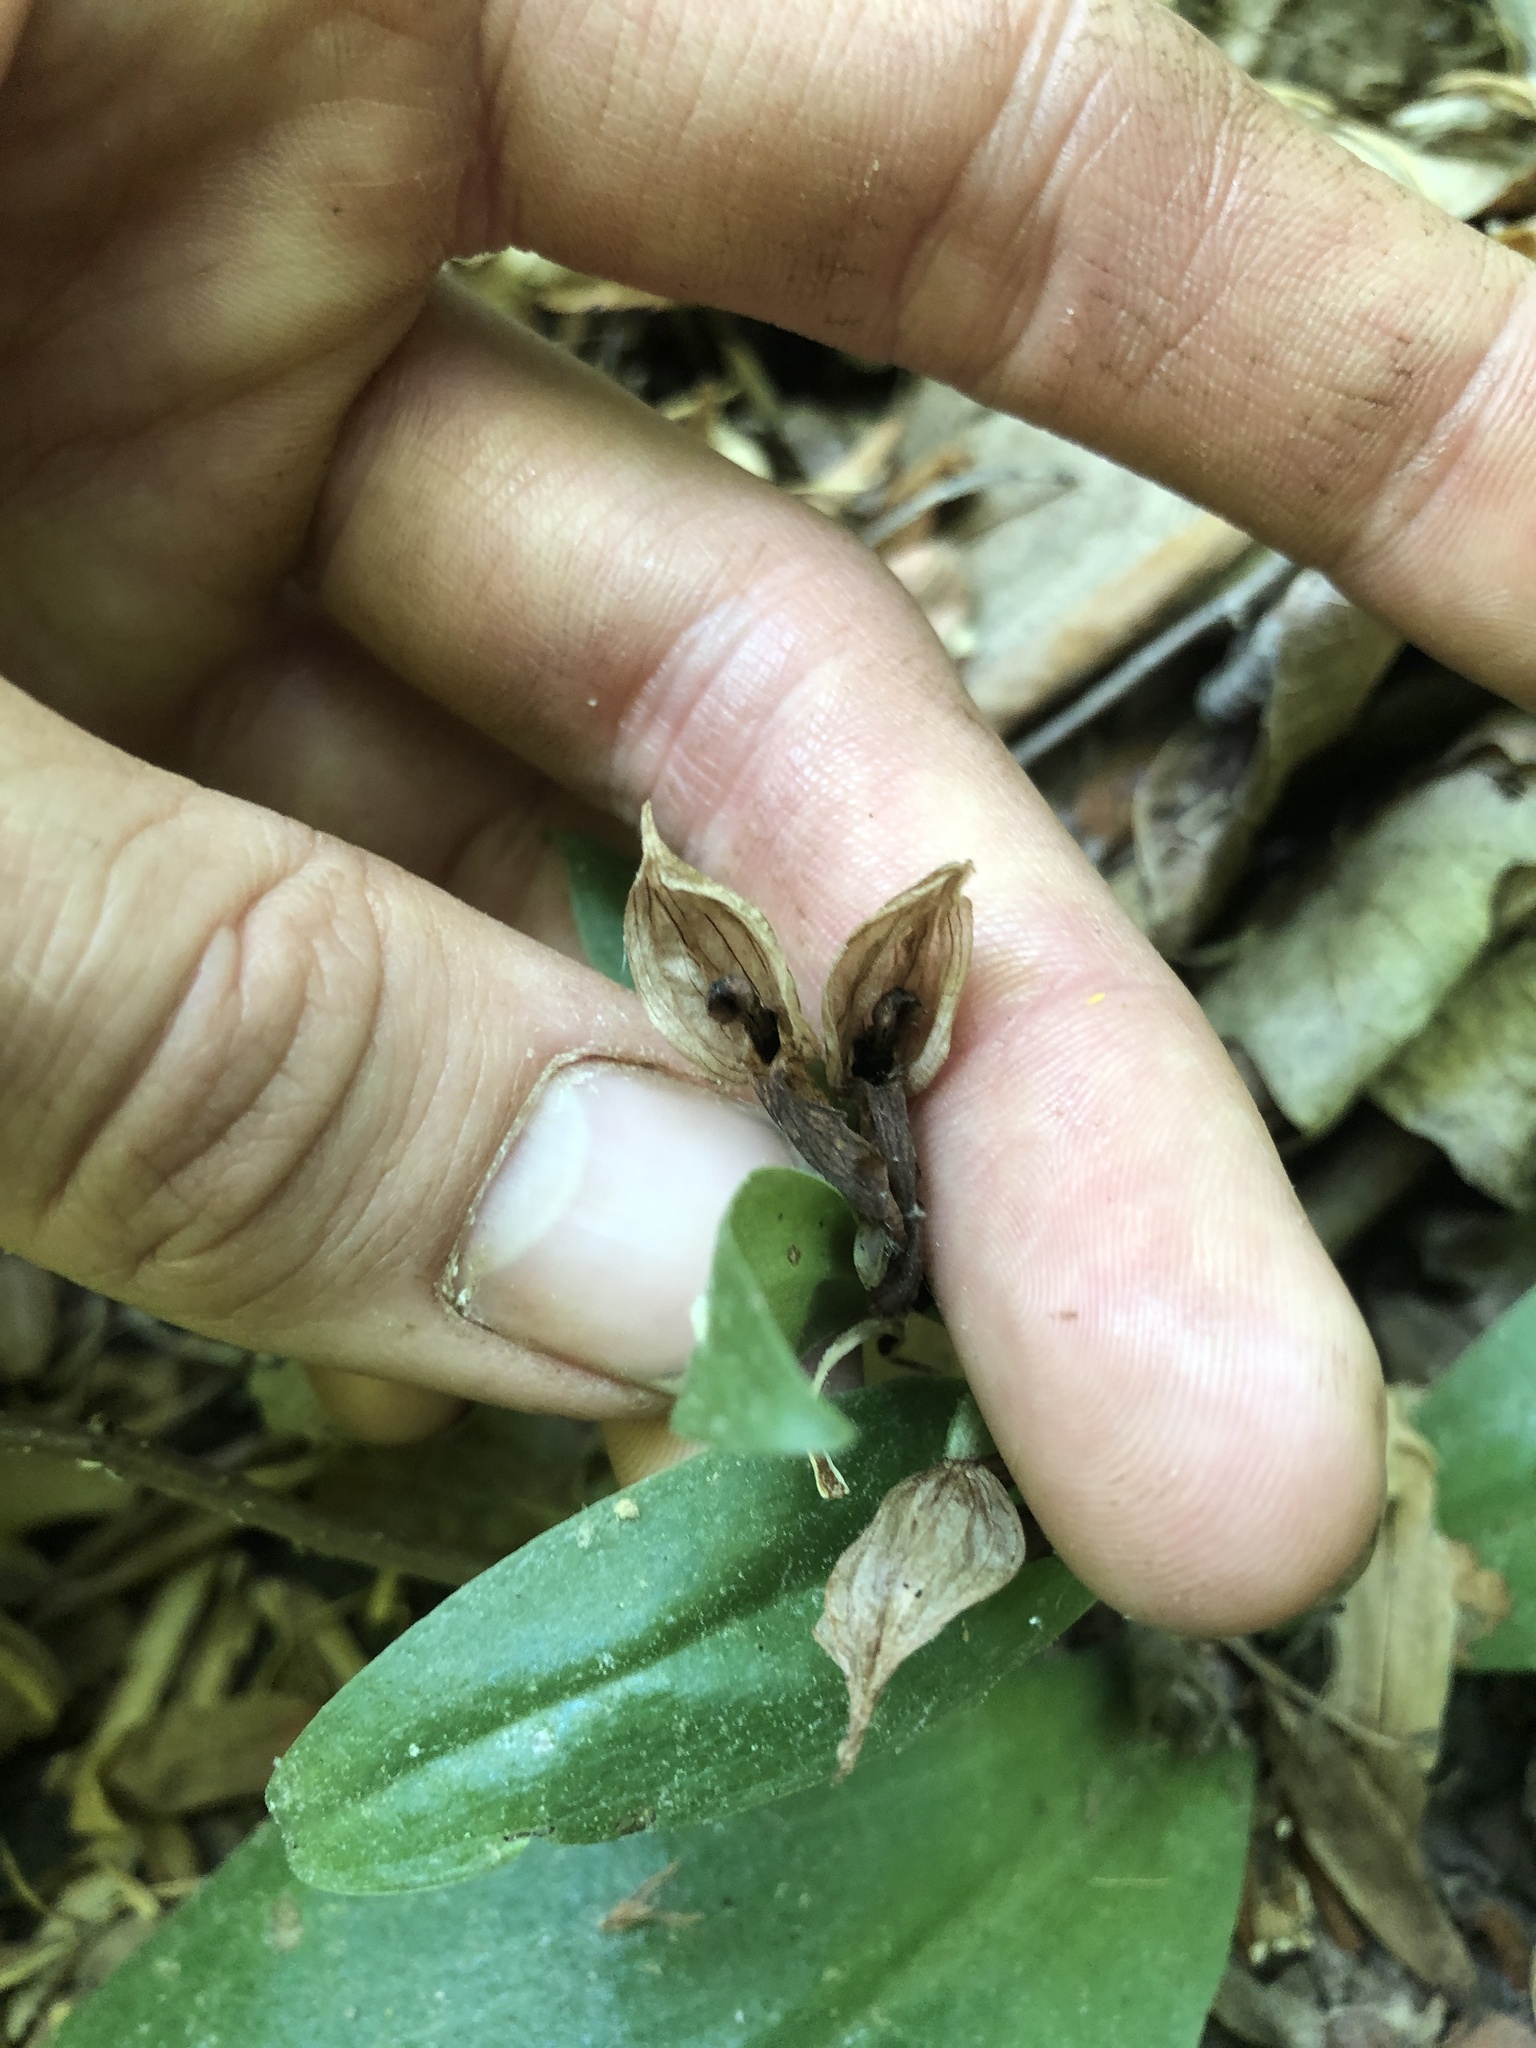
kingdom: Plantae
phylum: Tracheophyta
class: Liliopsida
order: Asparagales
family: Orchidaceae
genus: Galearis
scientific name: Galearis spectabilis
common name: Purple-hooded orchis
